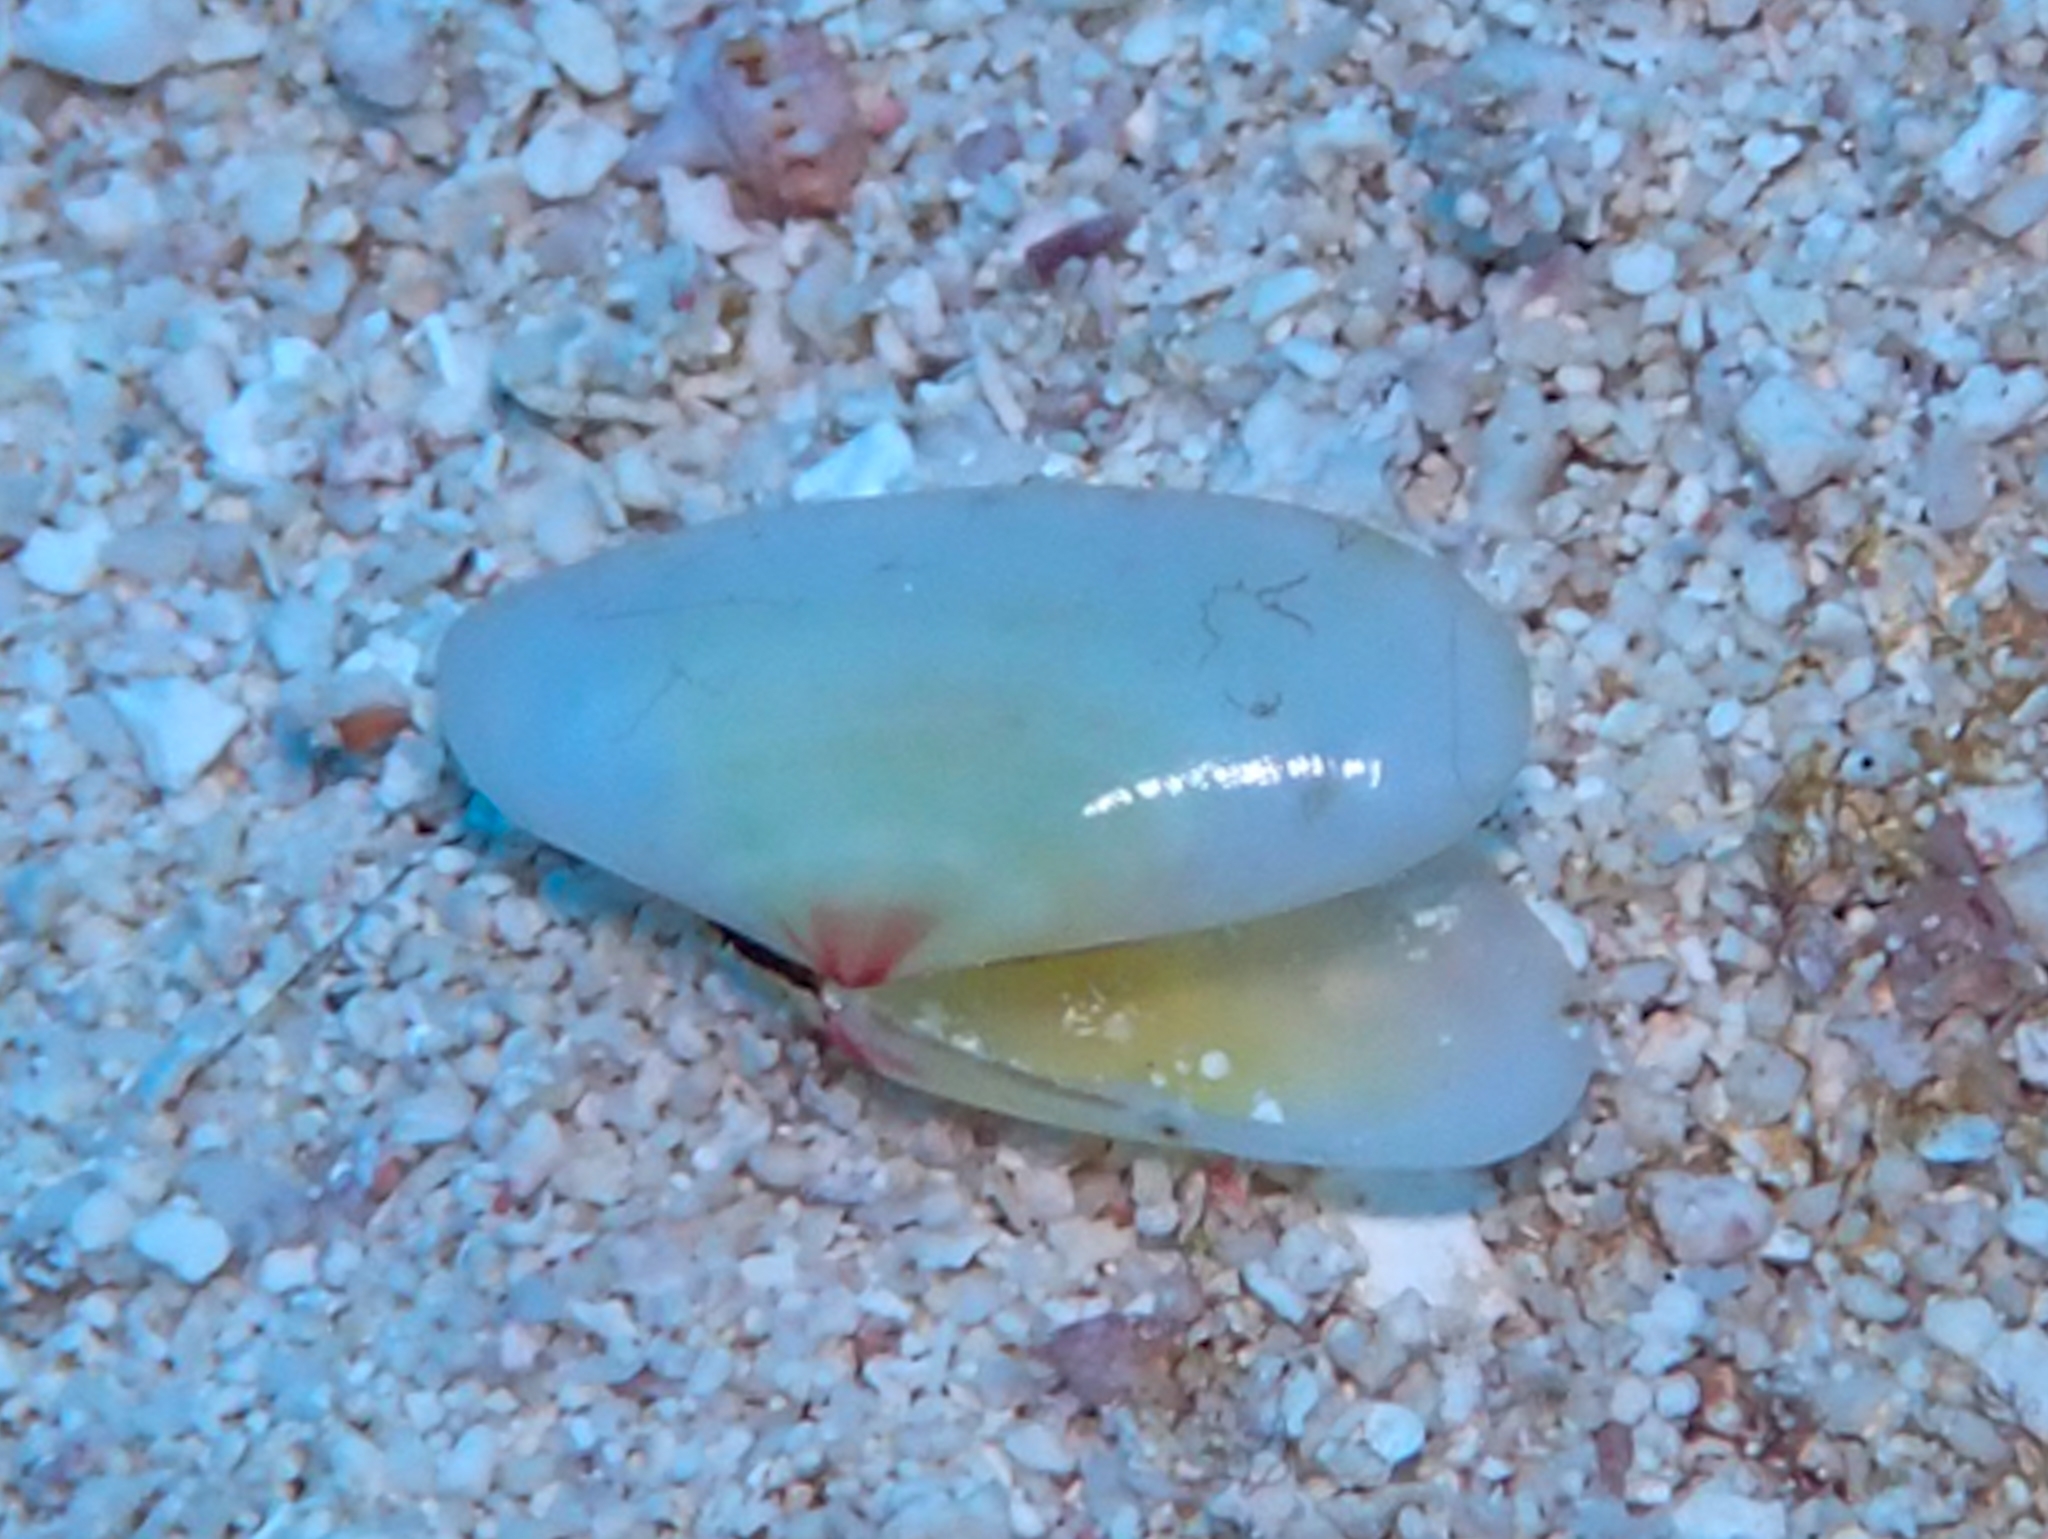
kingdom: Animalia
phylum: Mollusca
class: Bivalvia
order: Cardiida
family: Tellinidae
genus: Tellina
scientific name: Tellina radiata
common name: Sunrise tellin
